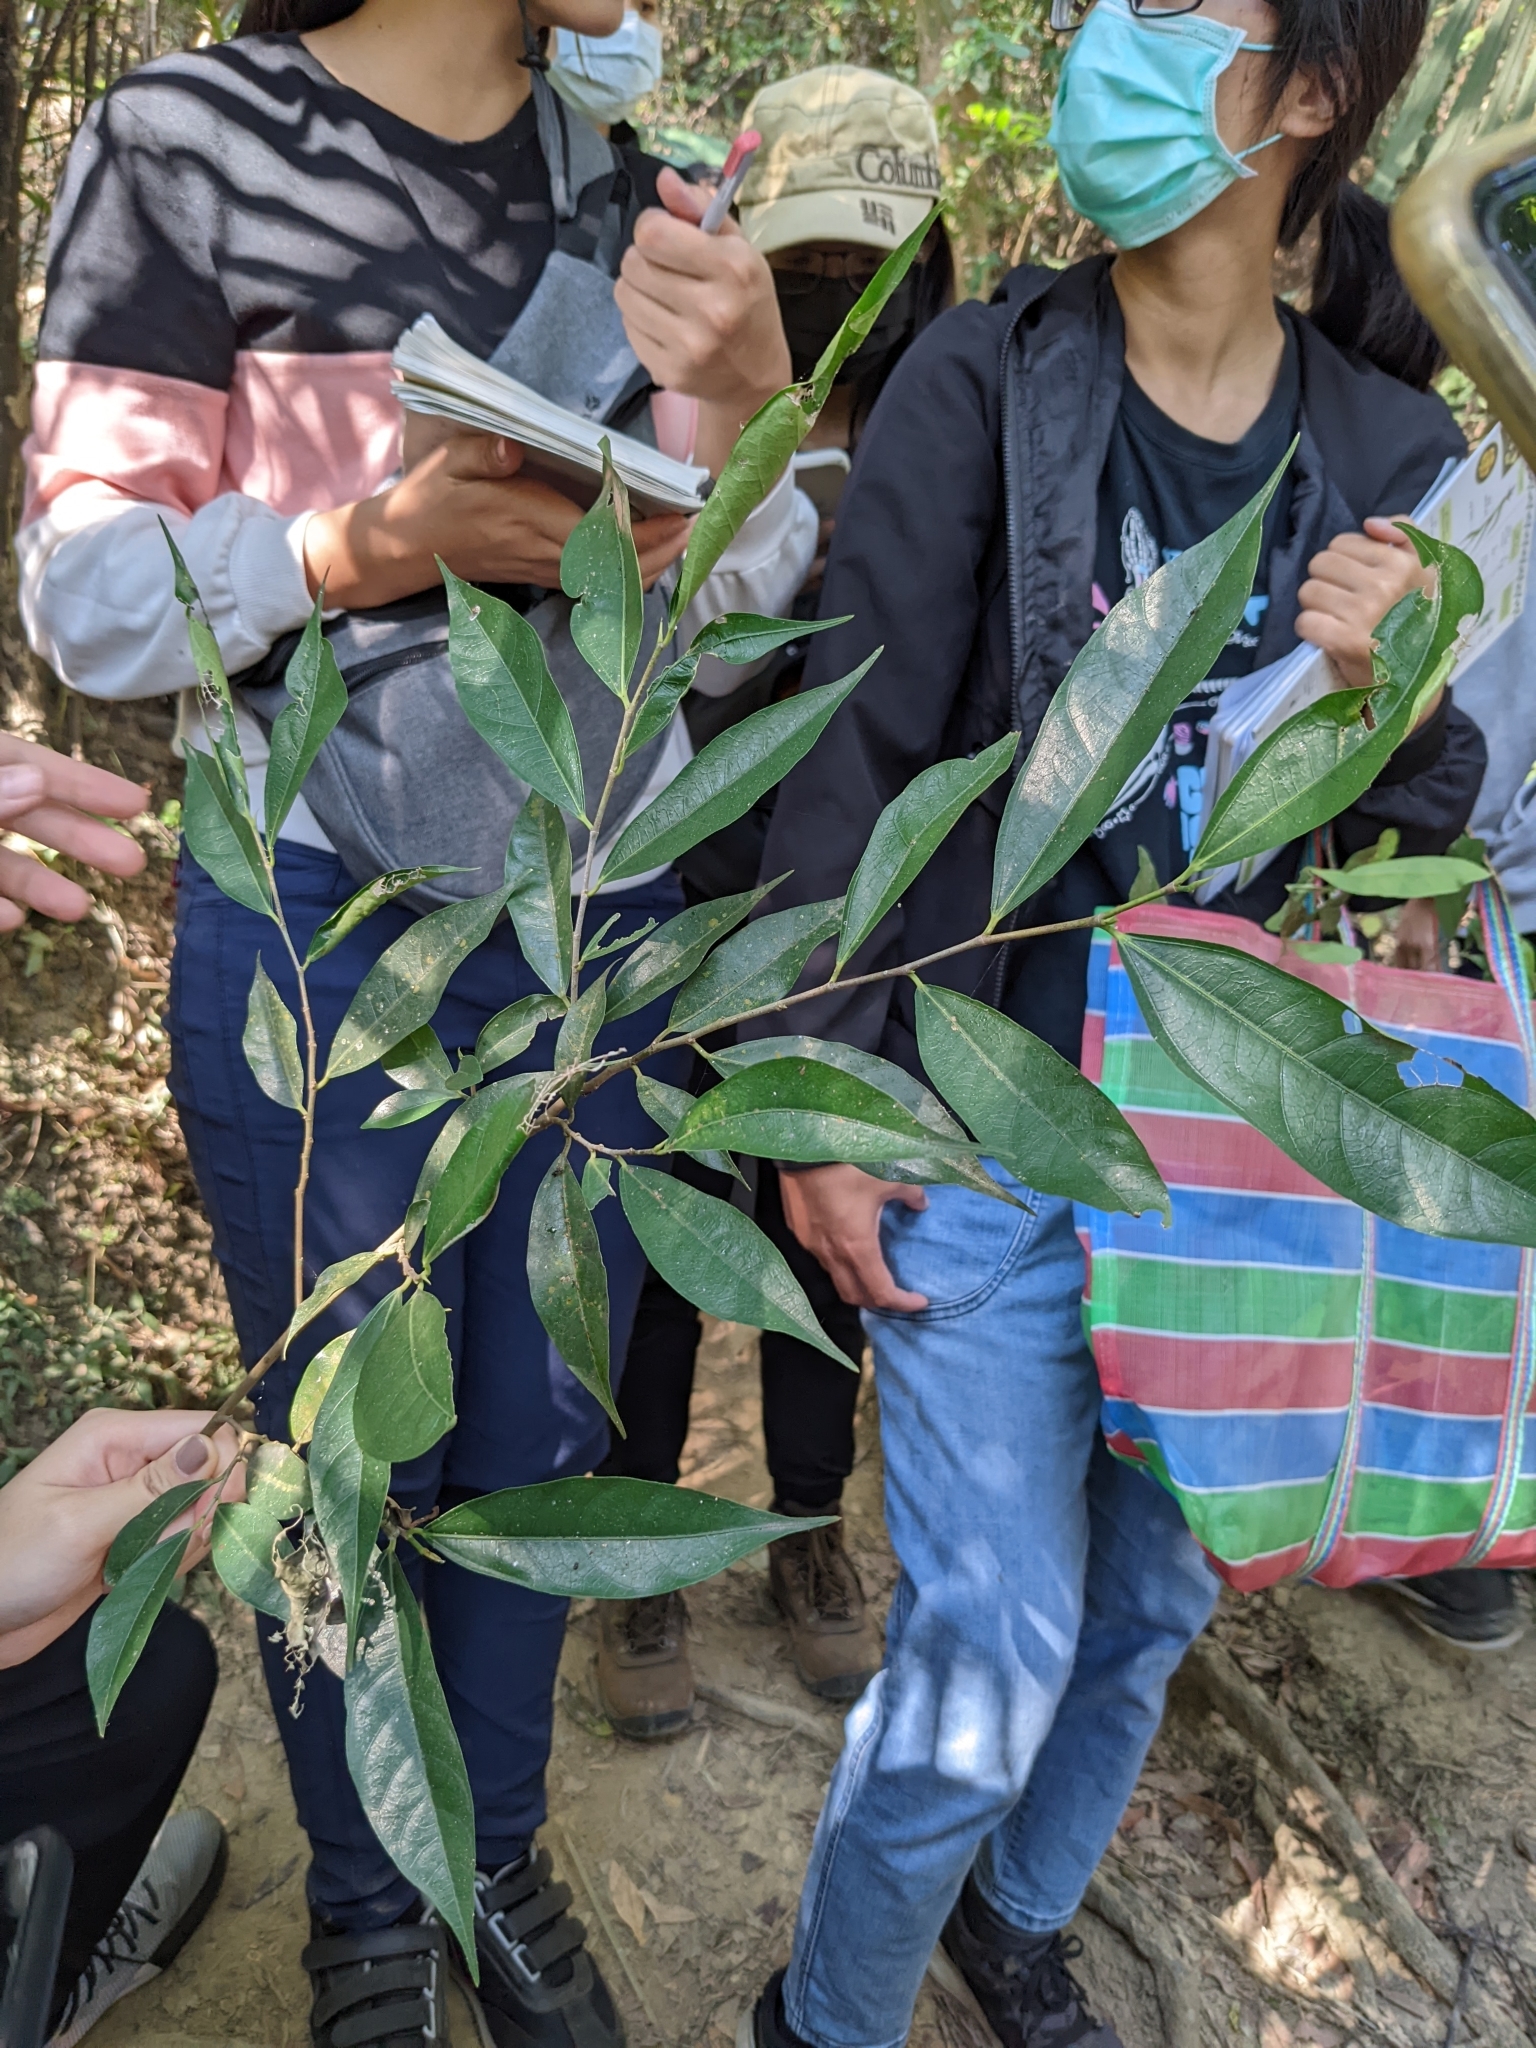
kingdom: Plantae
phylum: Tracheophyta
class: Magnoliopsida
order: Rosales
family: Moraceae
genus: Ficus
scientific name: Ficus ampelos
